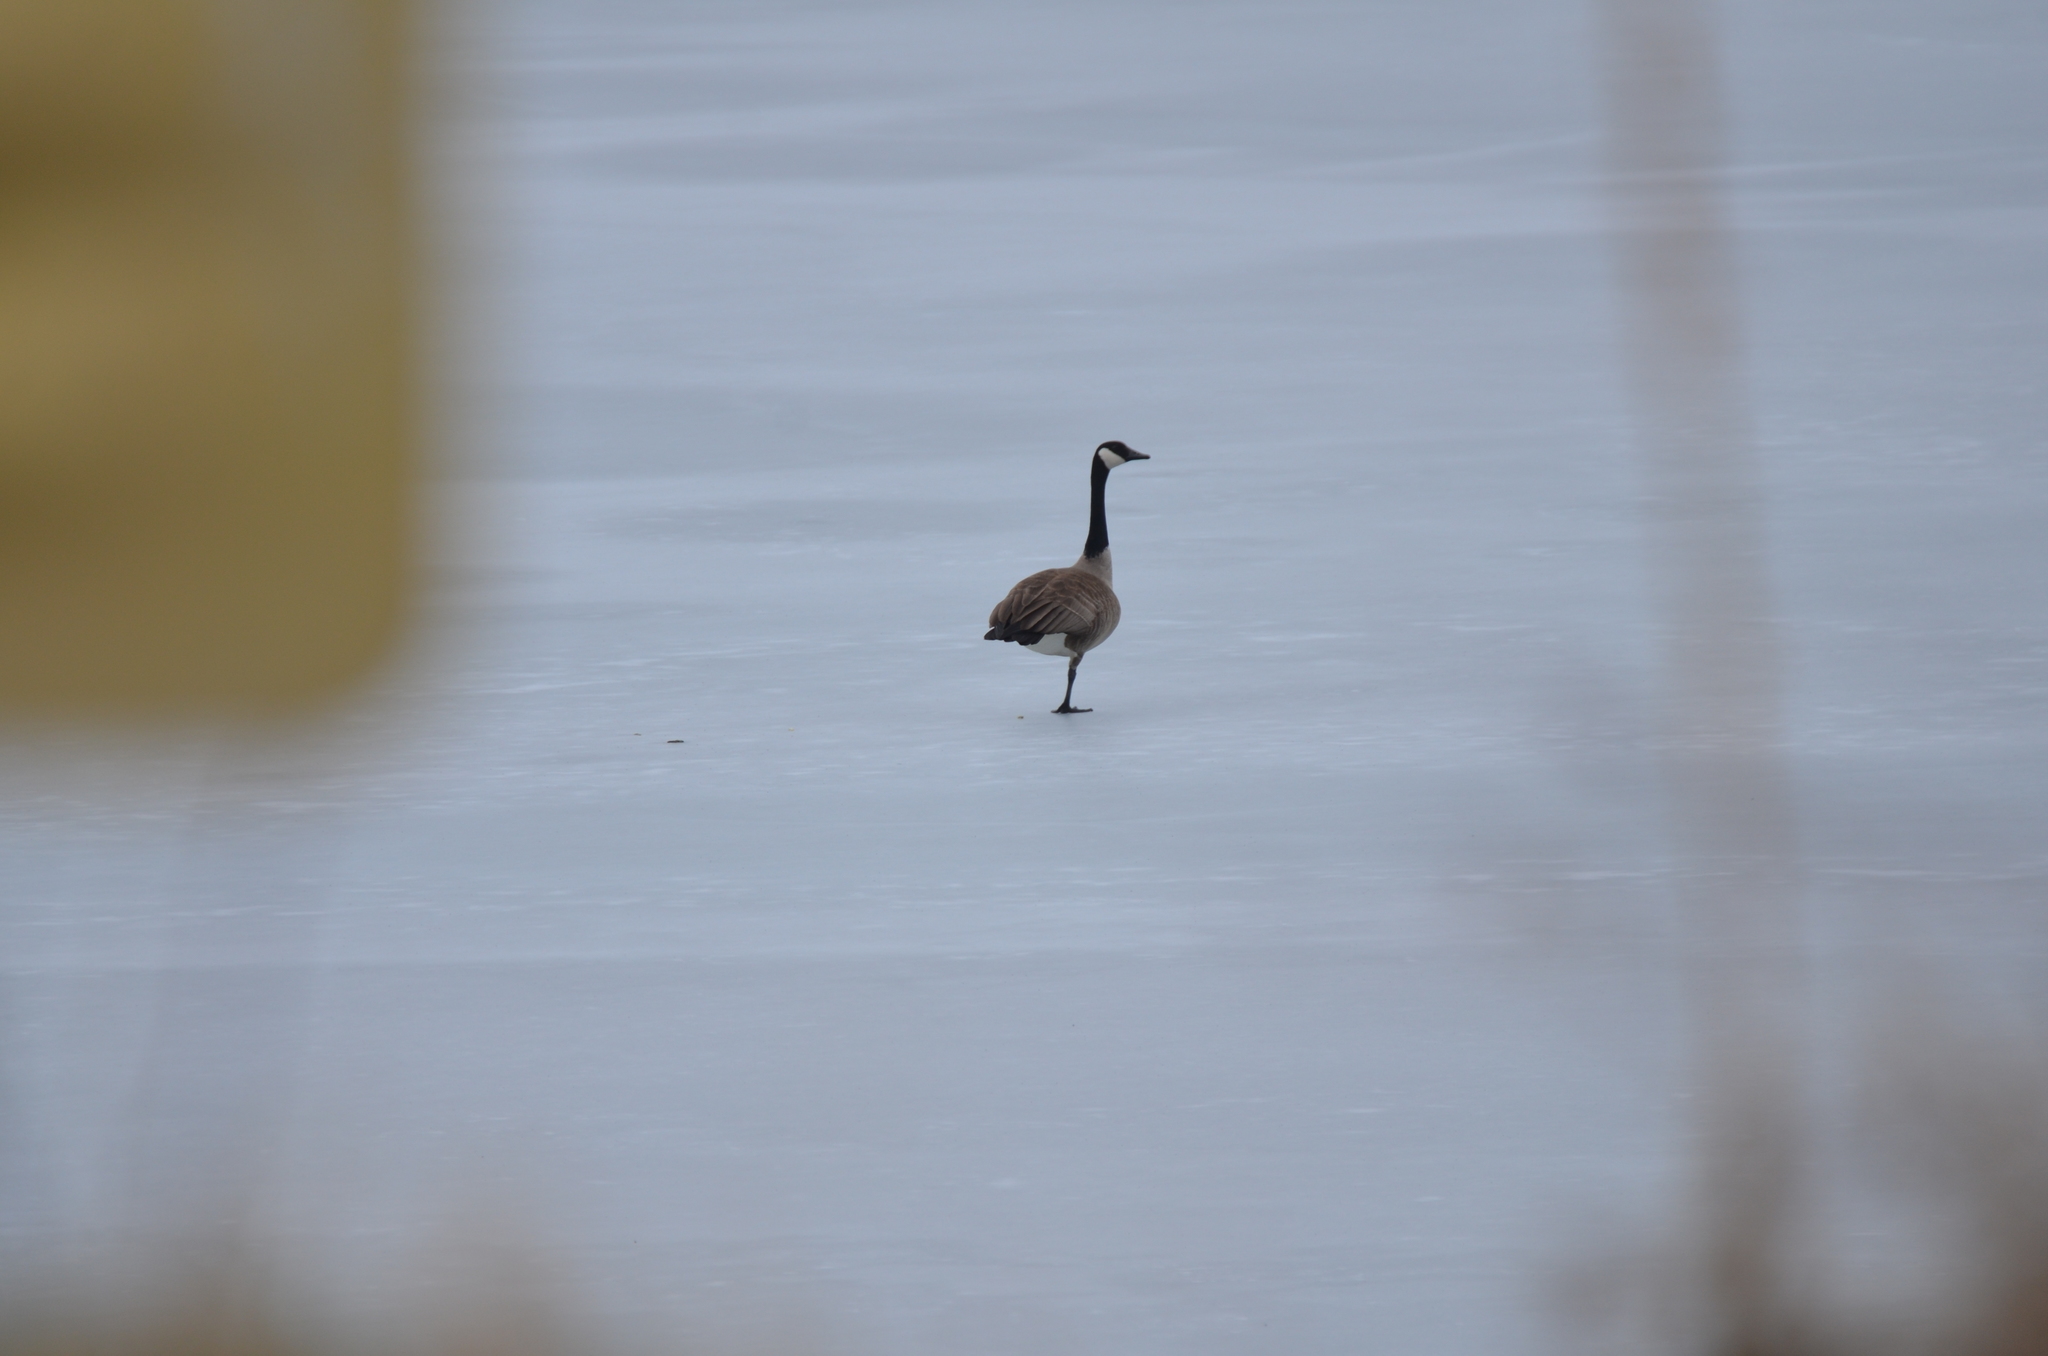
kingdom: Animalia
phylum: Chordata
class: Aves
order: Anseriformes
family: Anatidae
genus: Branta
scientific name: Branta canadensis
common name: Canada goose
